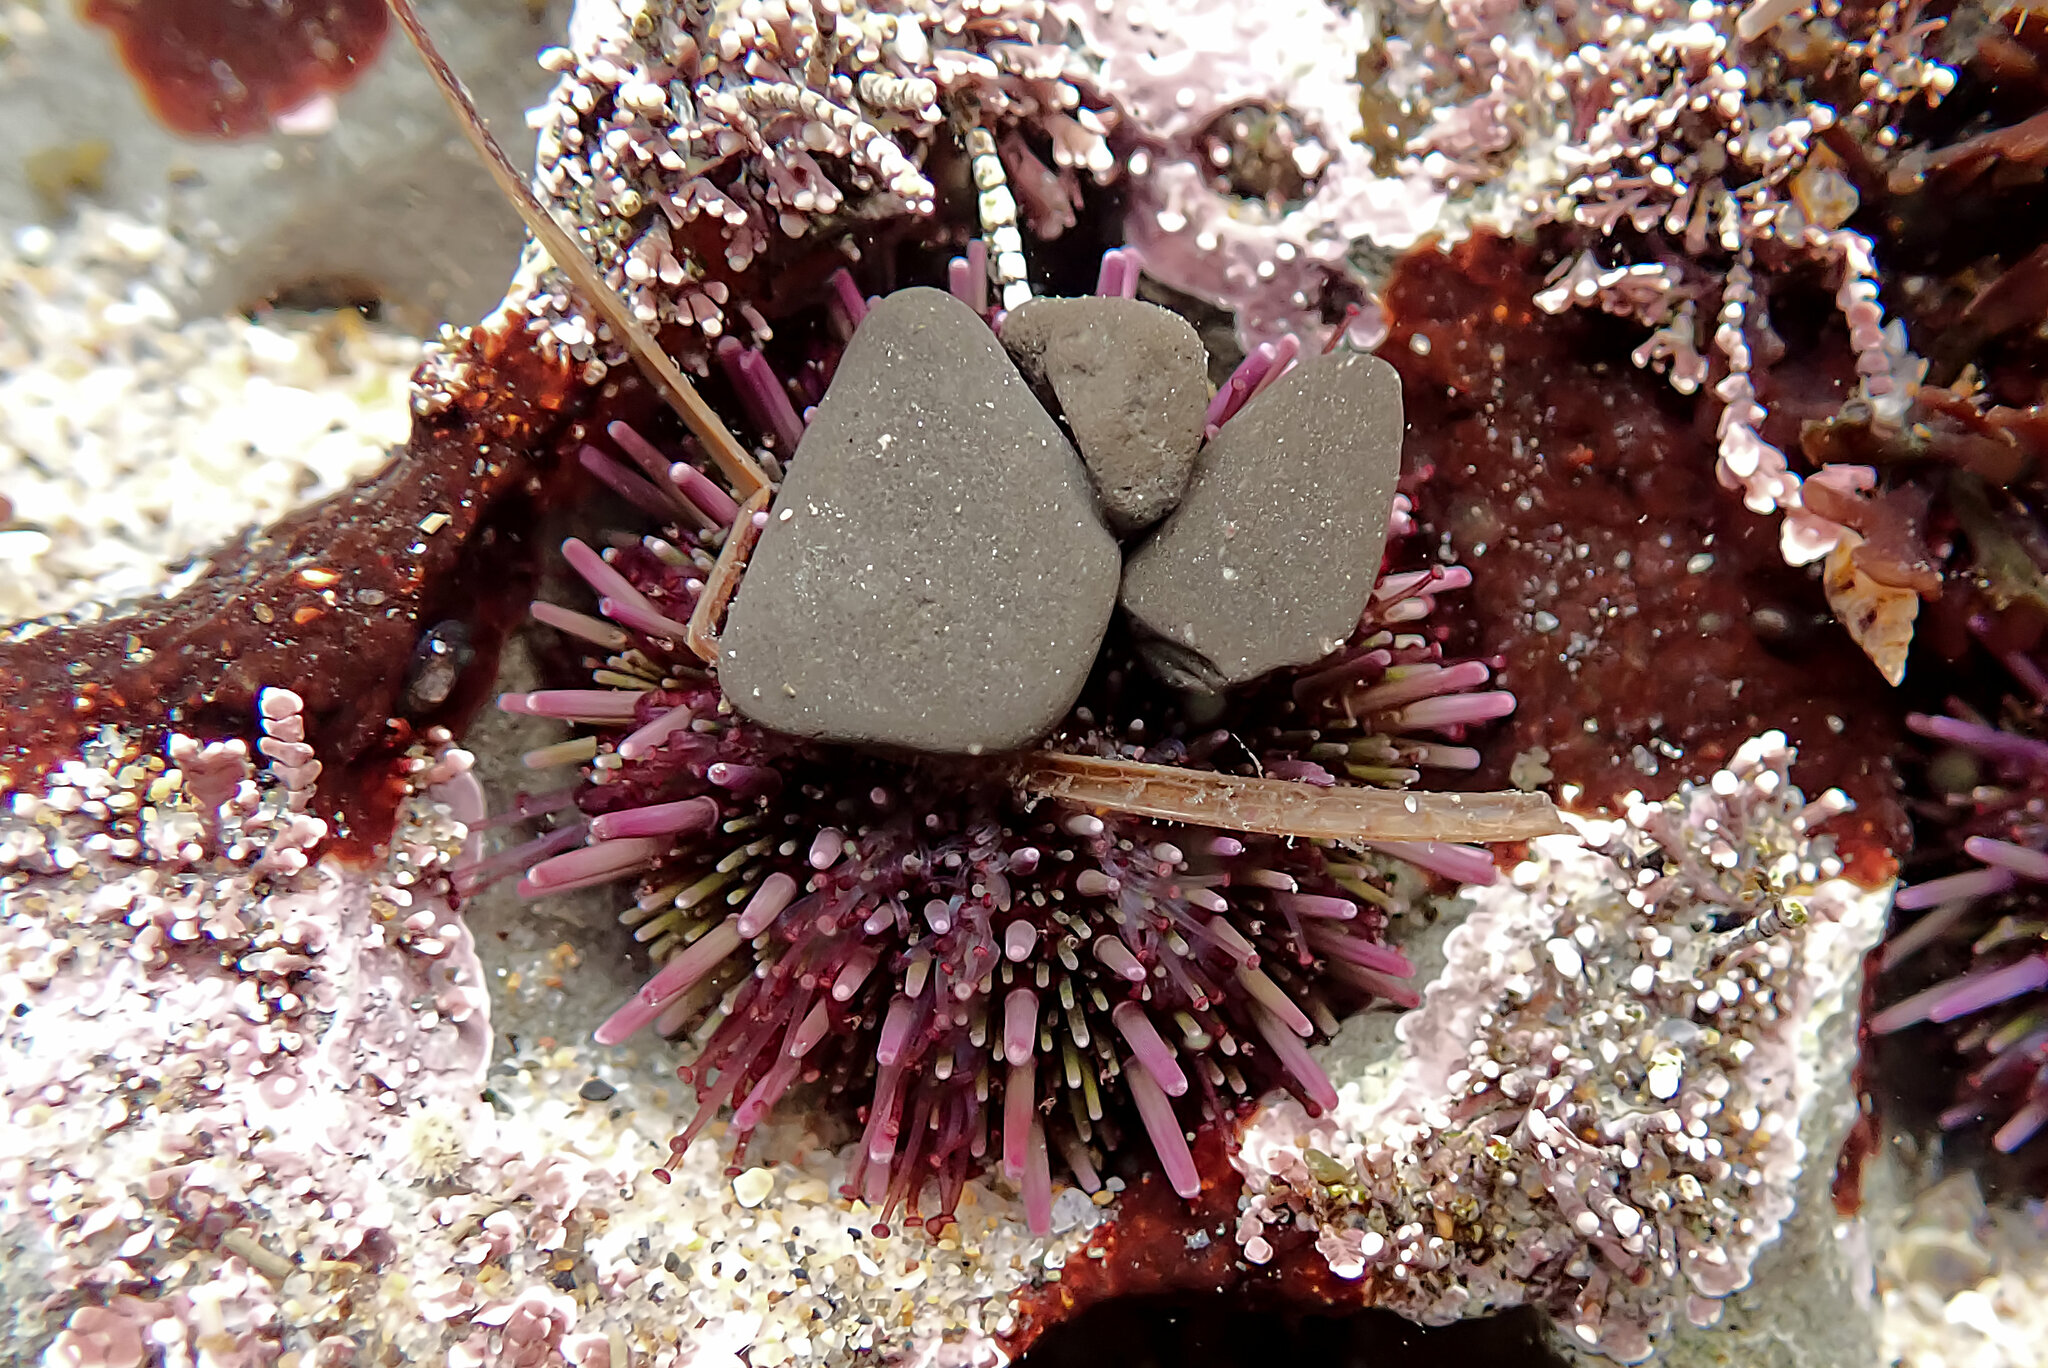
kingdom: Animalia
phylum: Echinodermata
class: Echinoidea
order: Camarodonta
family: Strongylocentrotidae
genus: Strongylocentrotus
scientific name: Strongylocentrotus purpuratus
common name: Purple sea urchin
